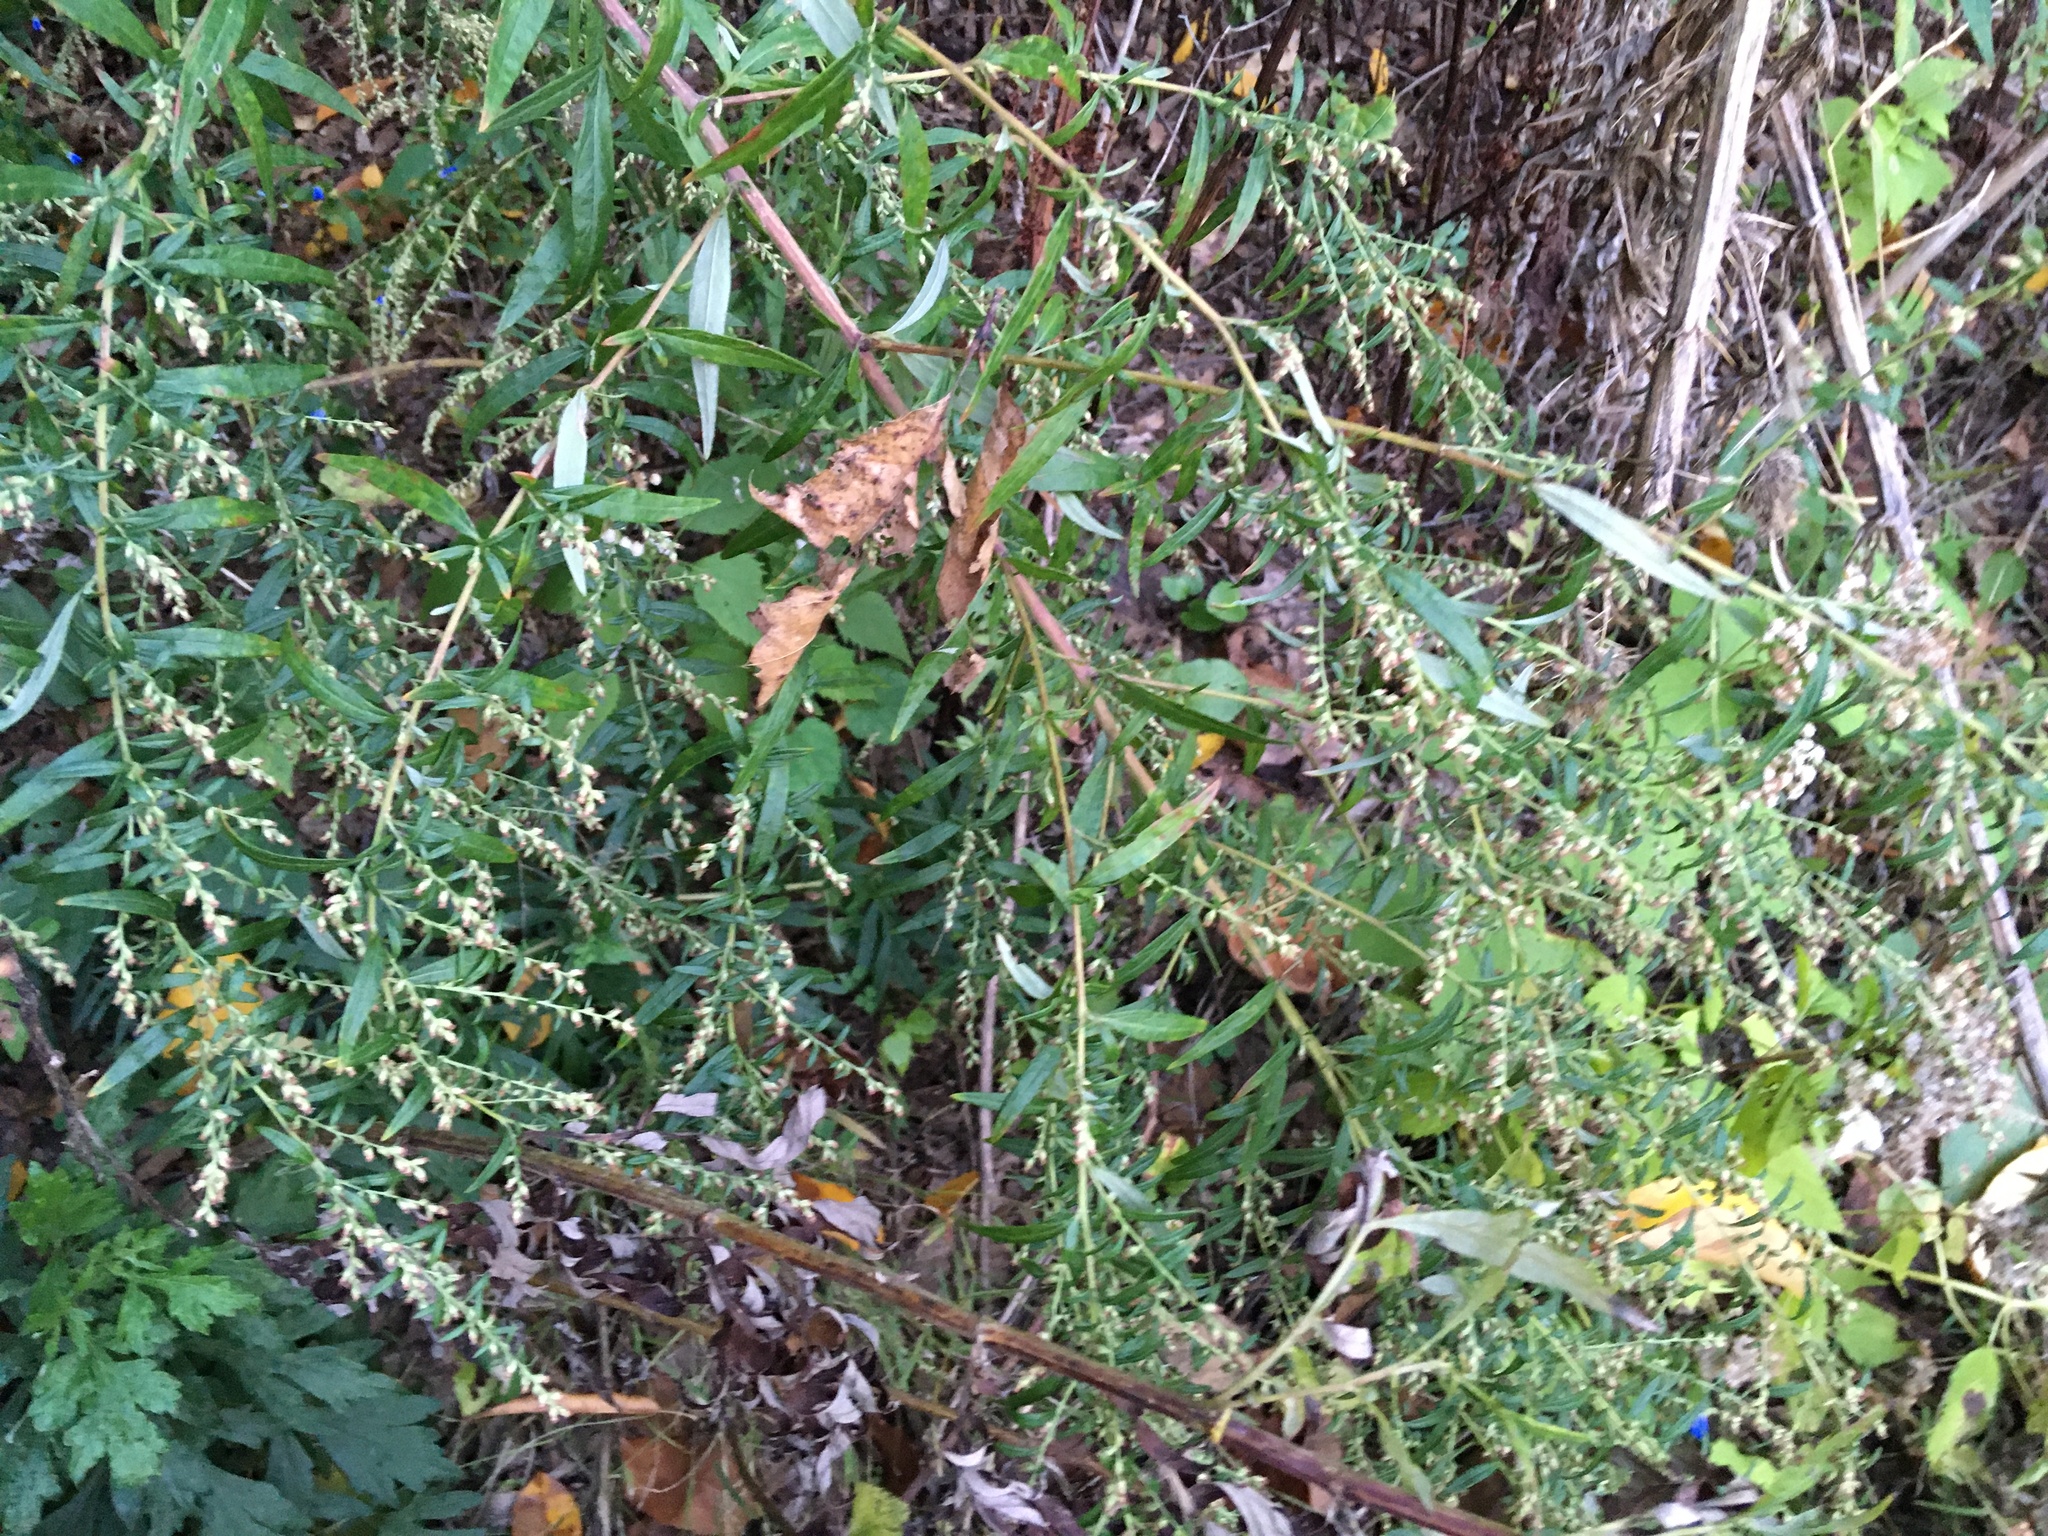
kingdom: Plantae
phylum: Tracheophyta
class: Magnoliopsida
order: Asterales
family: Asteraceae
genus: Artemisia
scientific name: Artemisia vulgaris
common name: Mugwort
